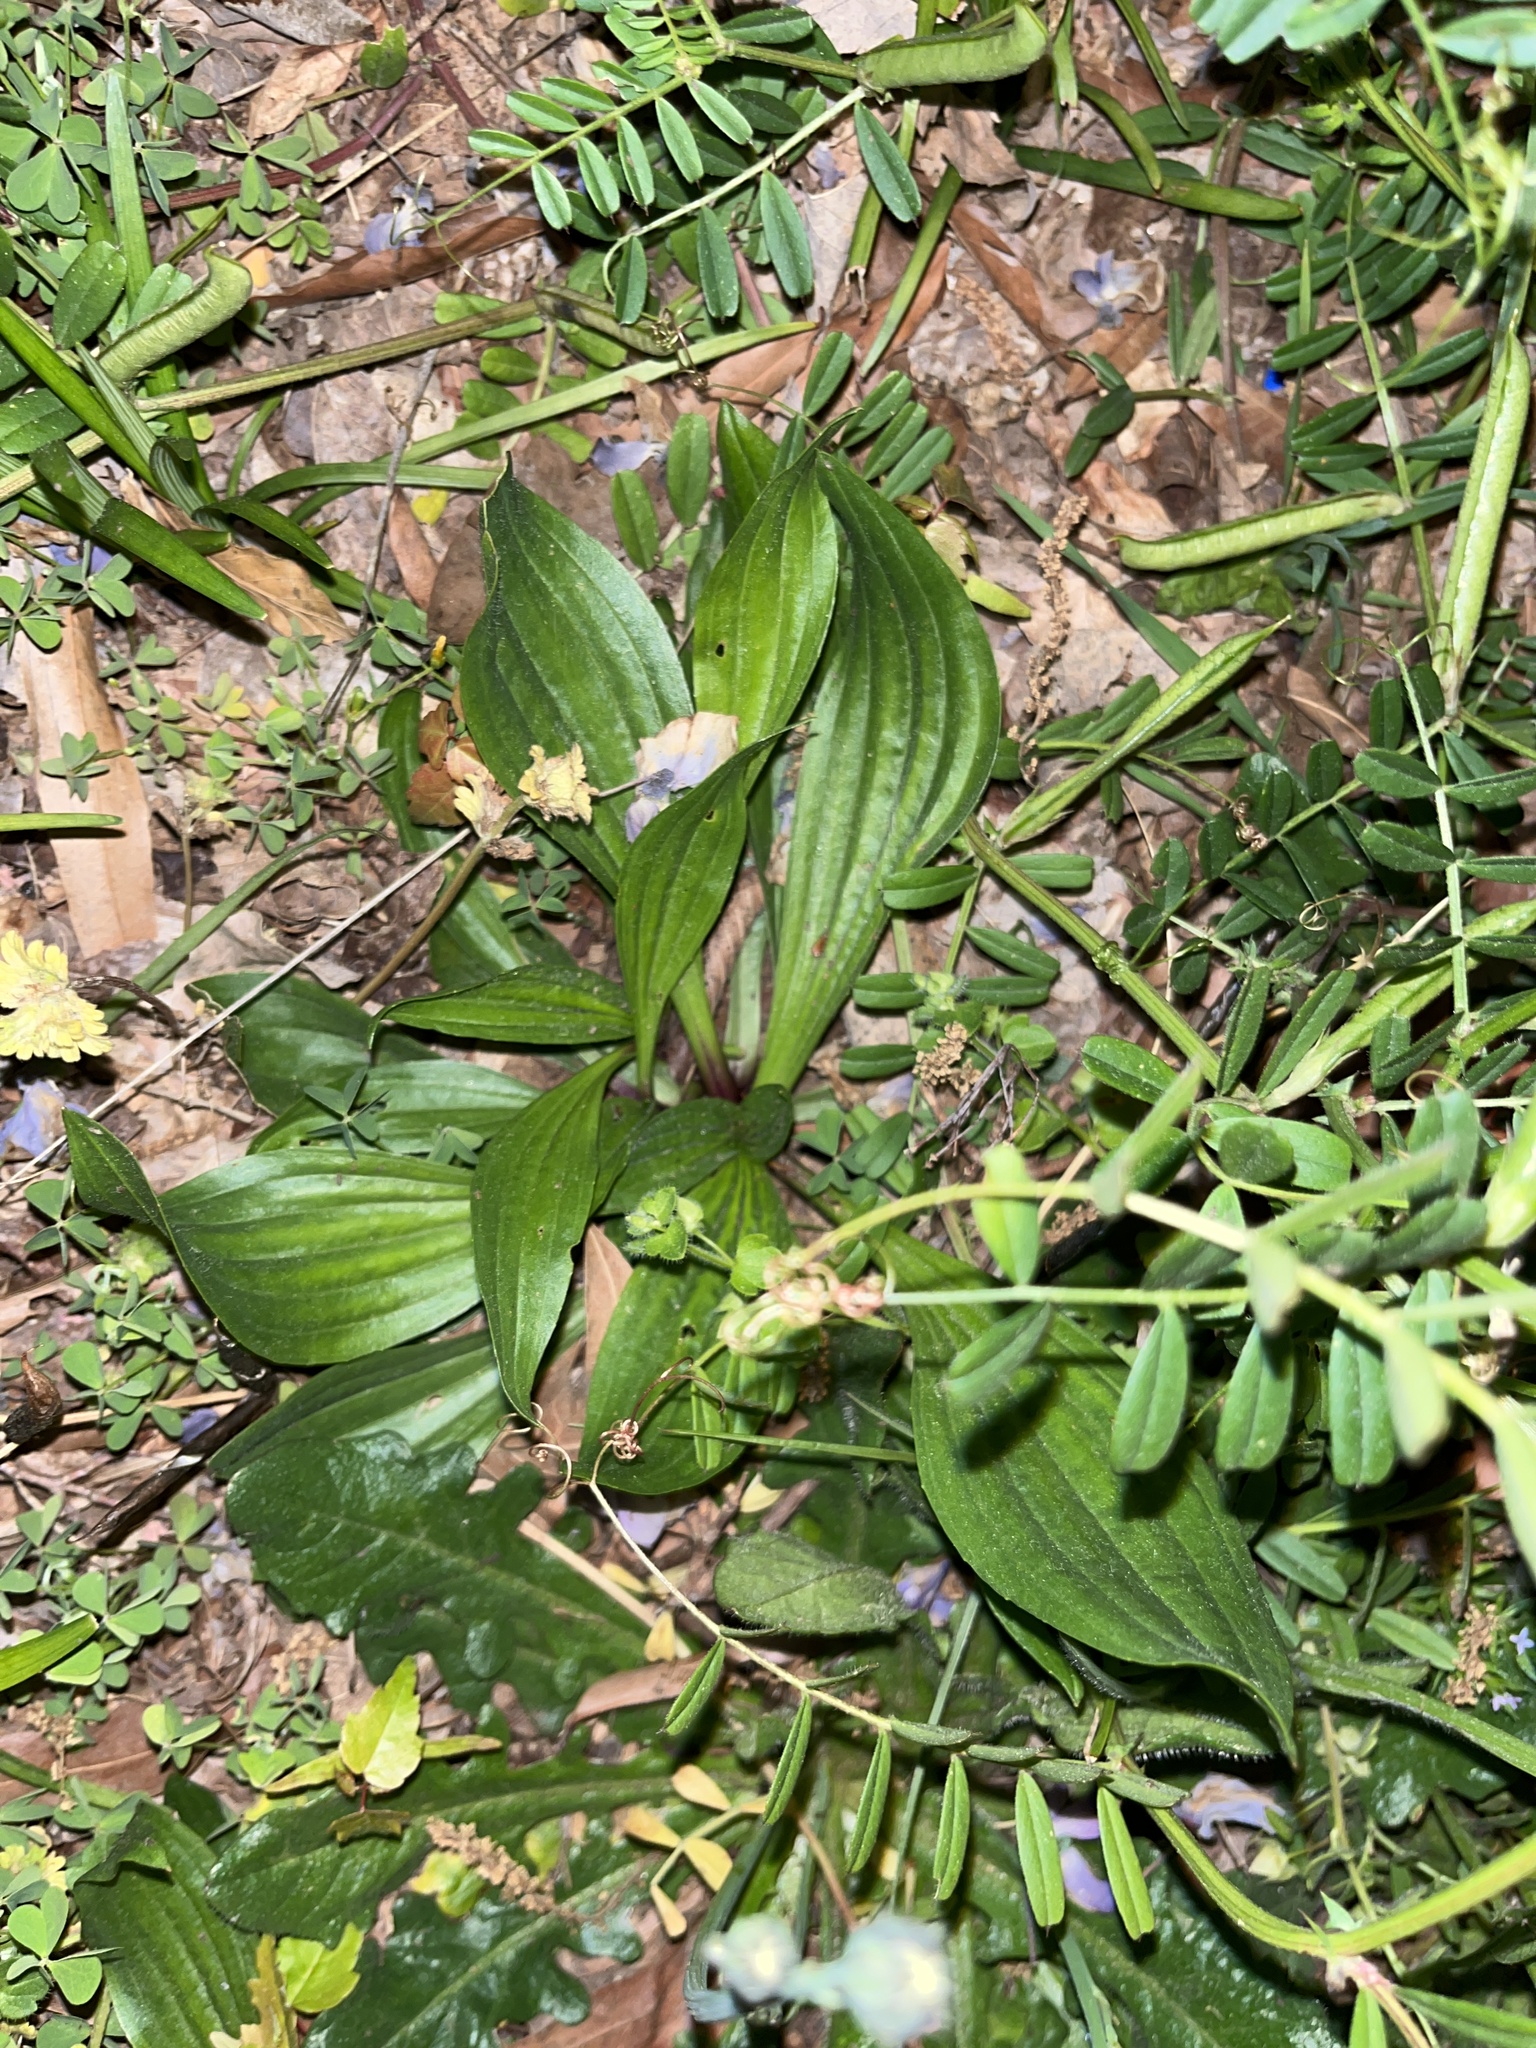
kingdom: Plantae
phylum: Tracheophyta
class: Magnoliopsida
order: Lamiales
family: Plantaginaceae
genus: Plantago
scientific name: Plantago lanceolata
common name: Ribwort plantain
